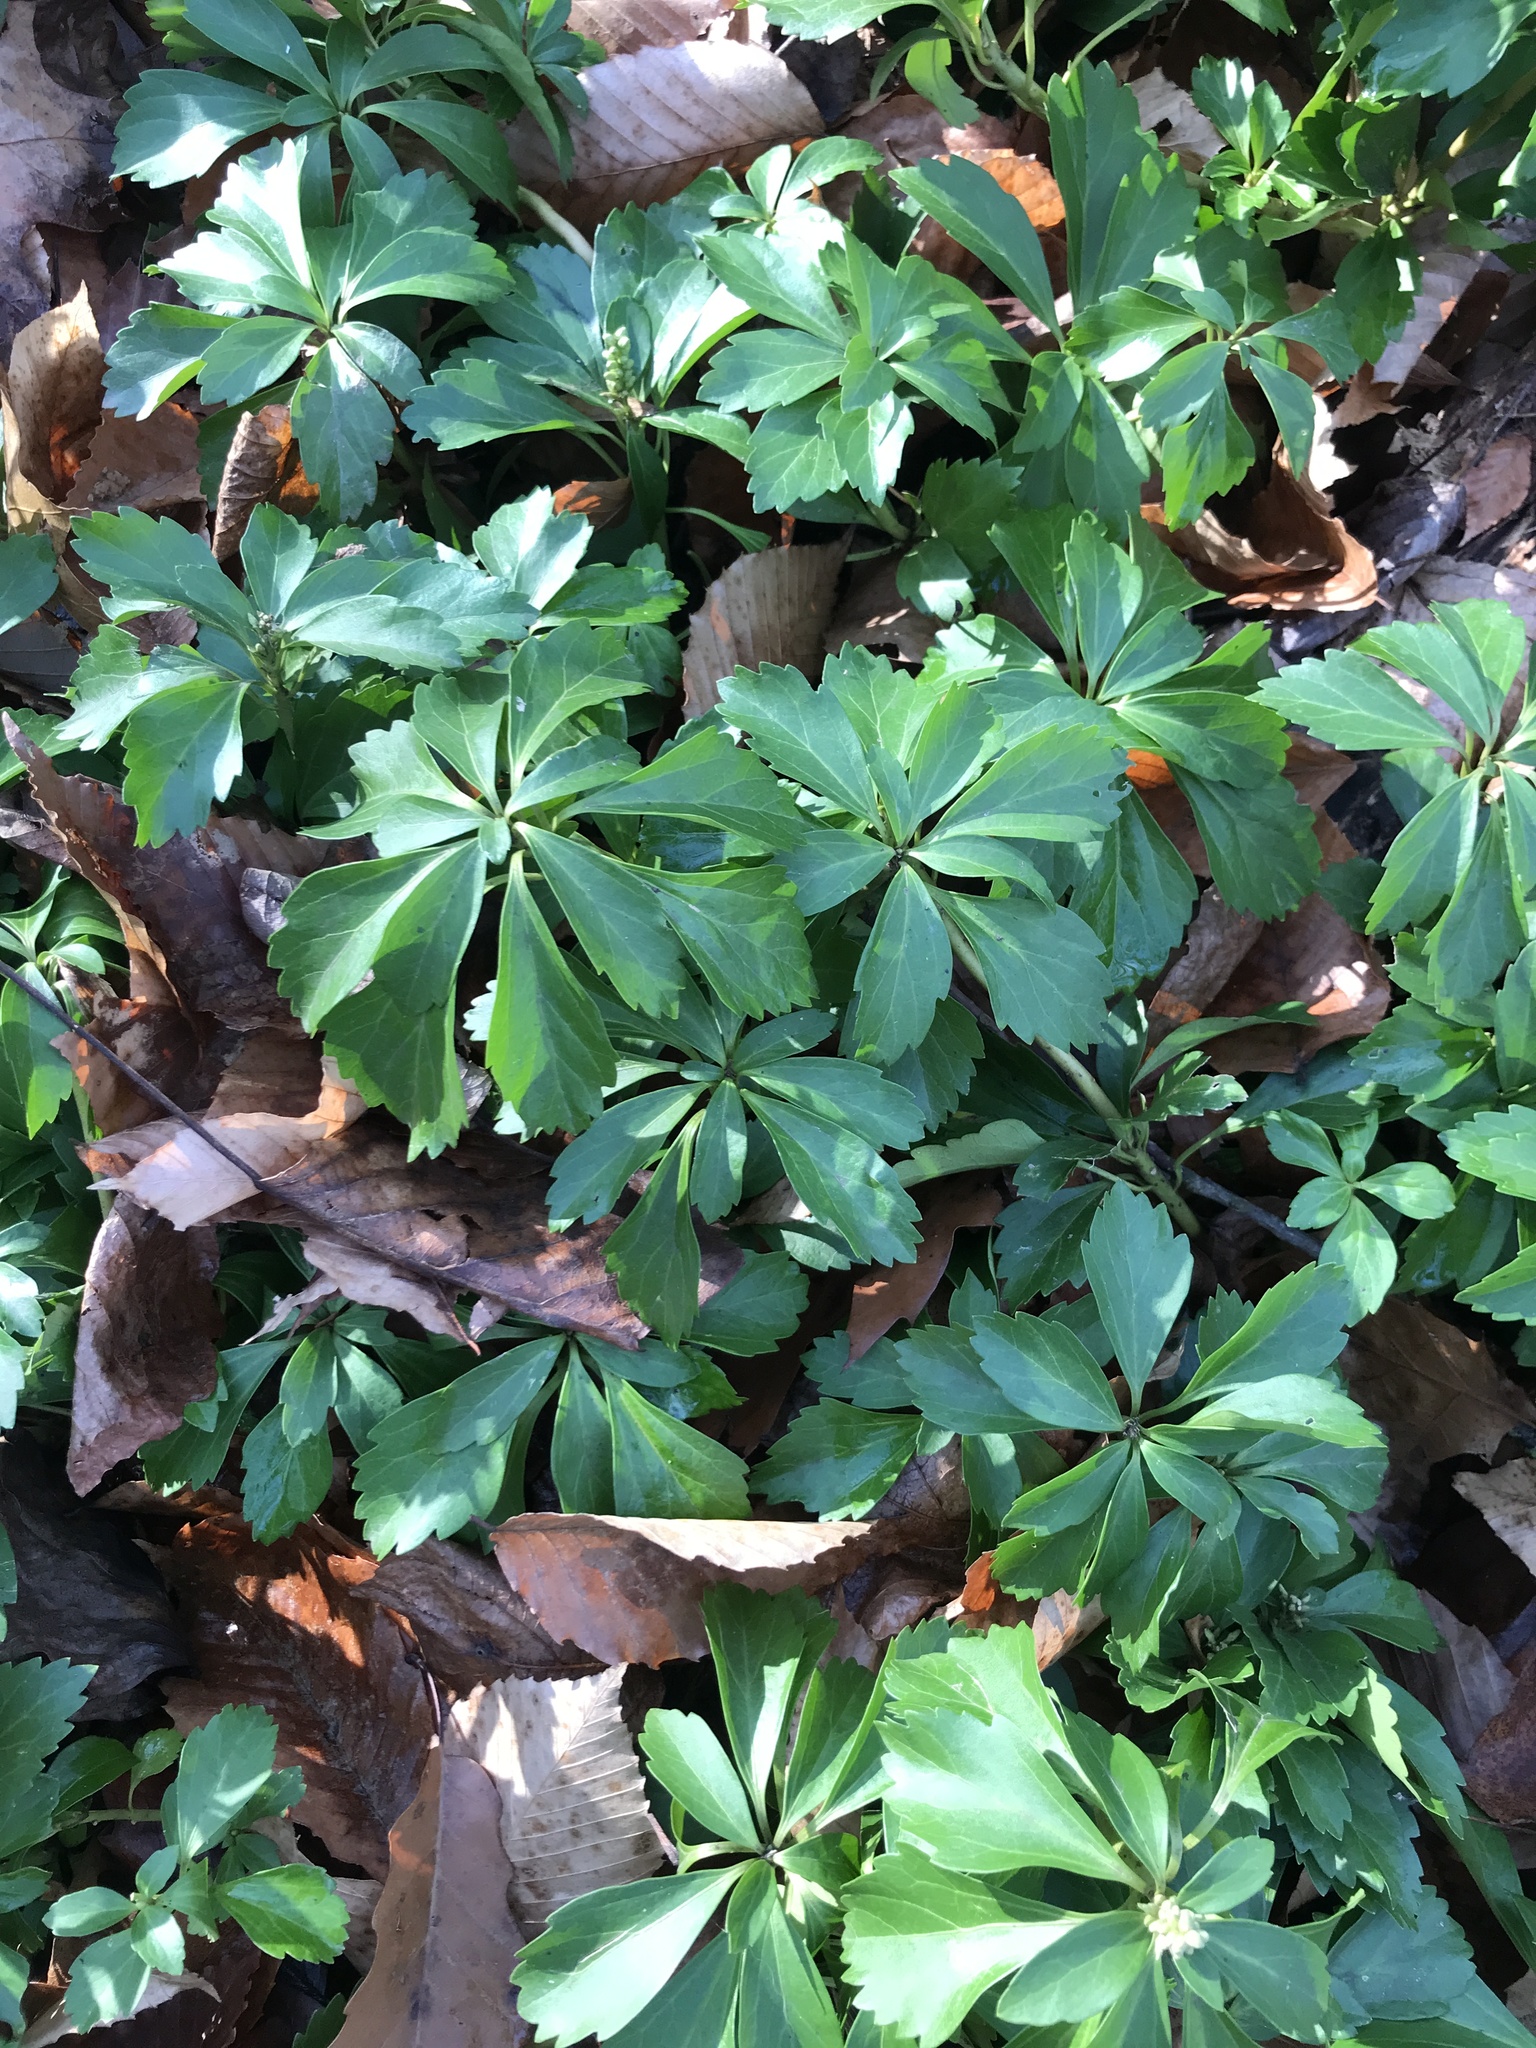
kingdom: Plantae
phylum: Tracheophyta
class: Magnoliopsida
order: Buxales
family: Buxaceae
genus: Pachysandra
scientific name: Pachysandra terminalis
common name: Japanese pachysandra
